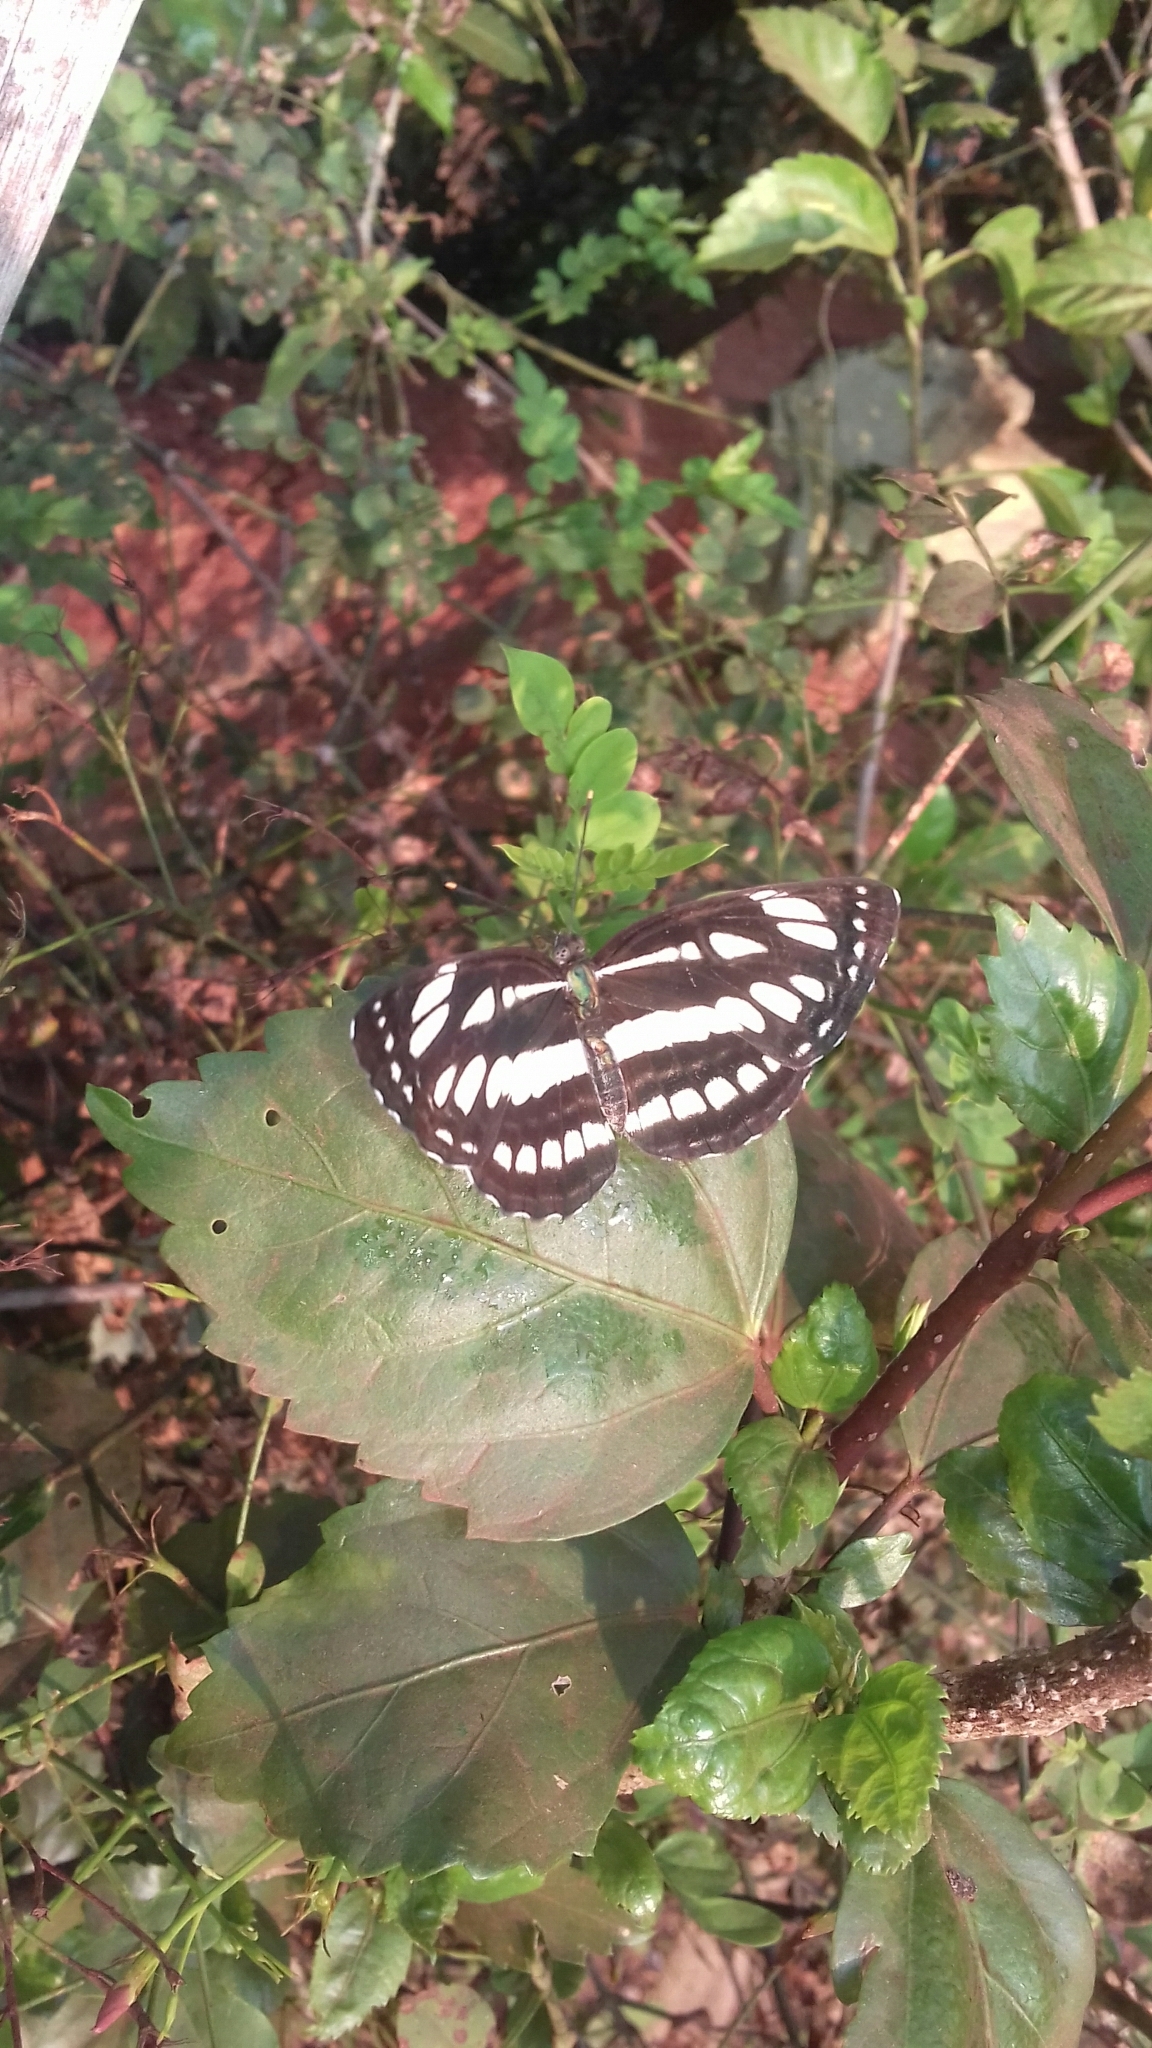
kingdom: Animalia
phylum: Arthropoda
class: Insecta
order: Lepidoptera
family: Nymphalidae
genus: Neptis
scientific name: Neptis hylas
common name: Common sailer
